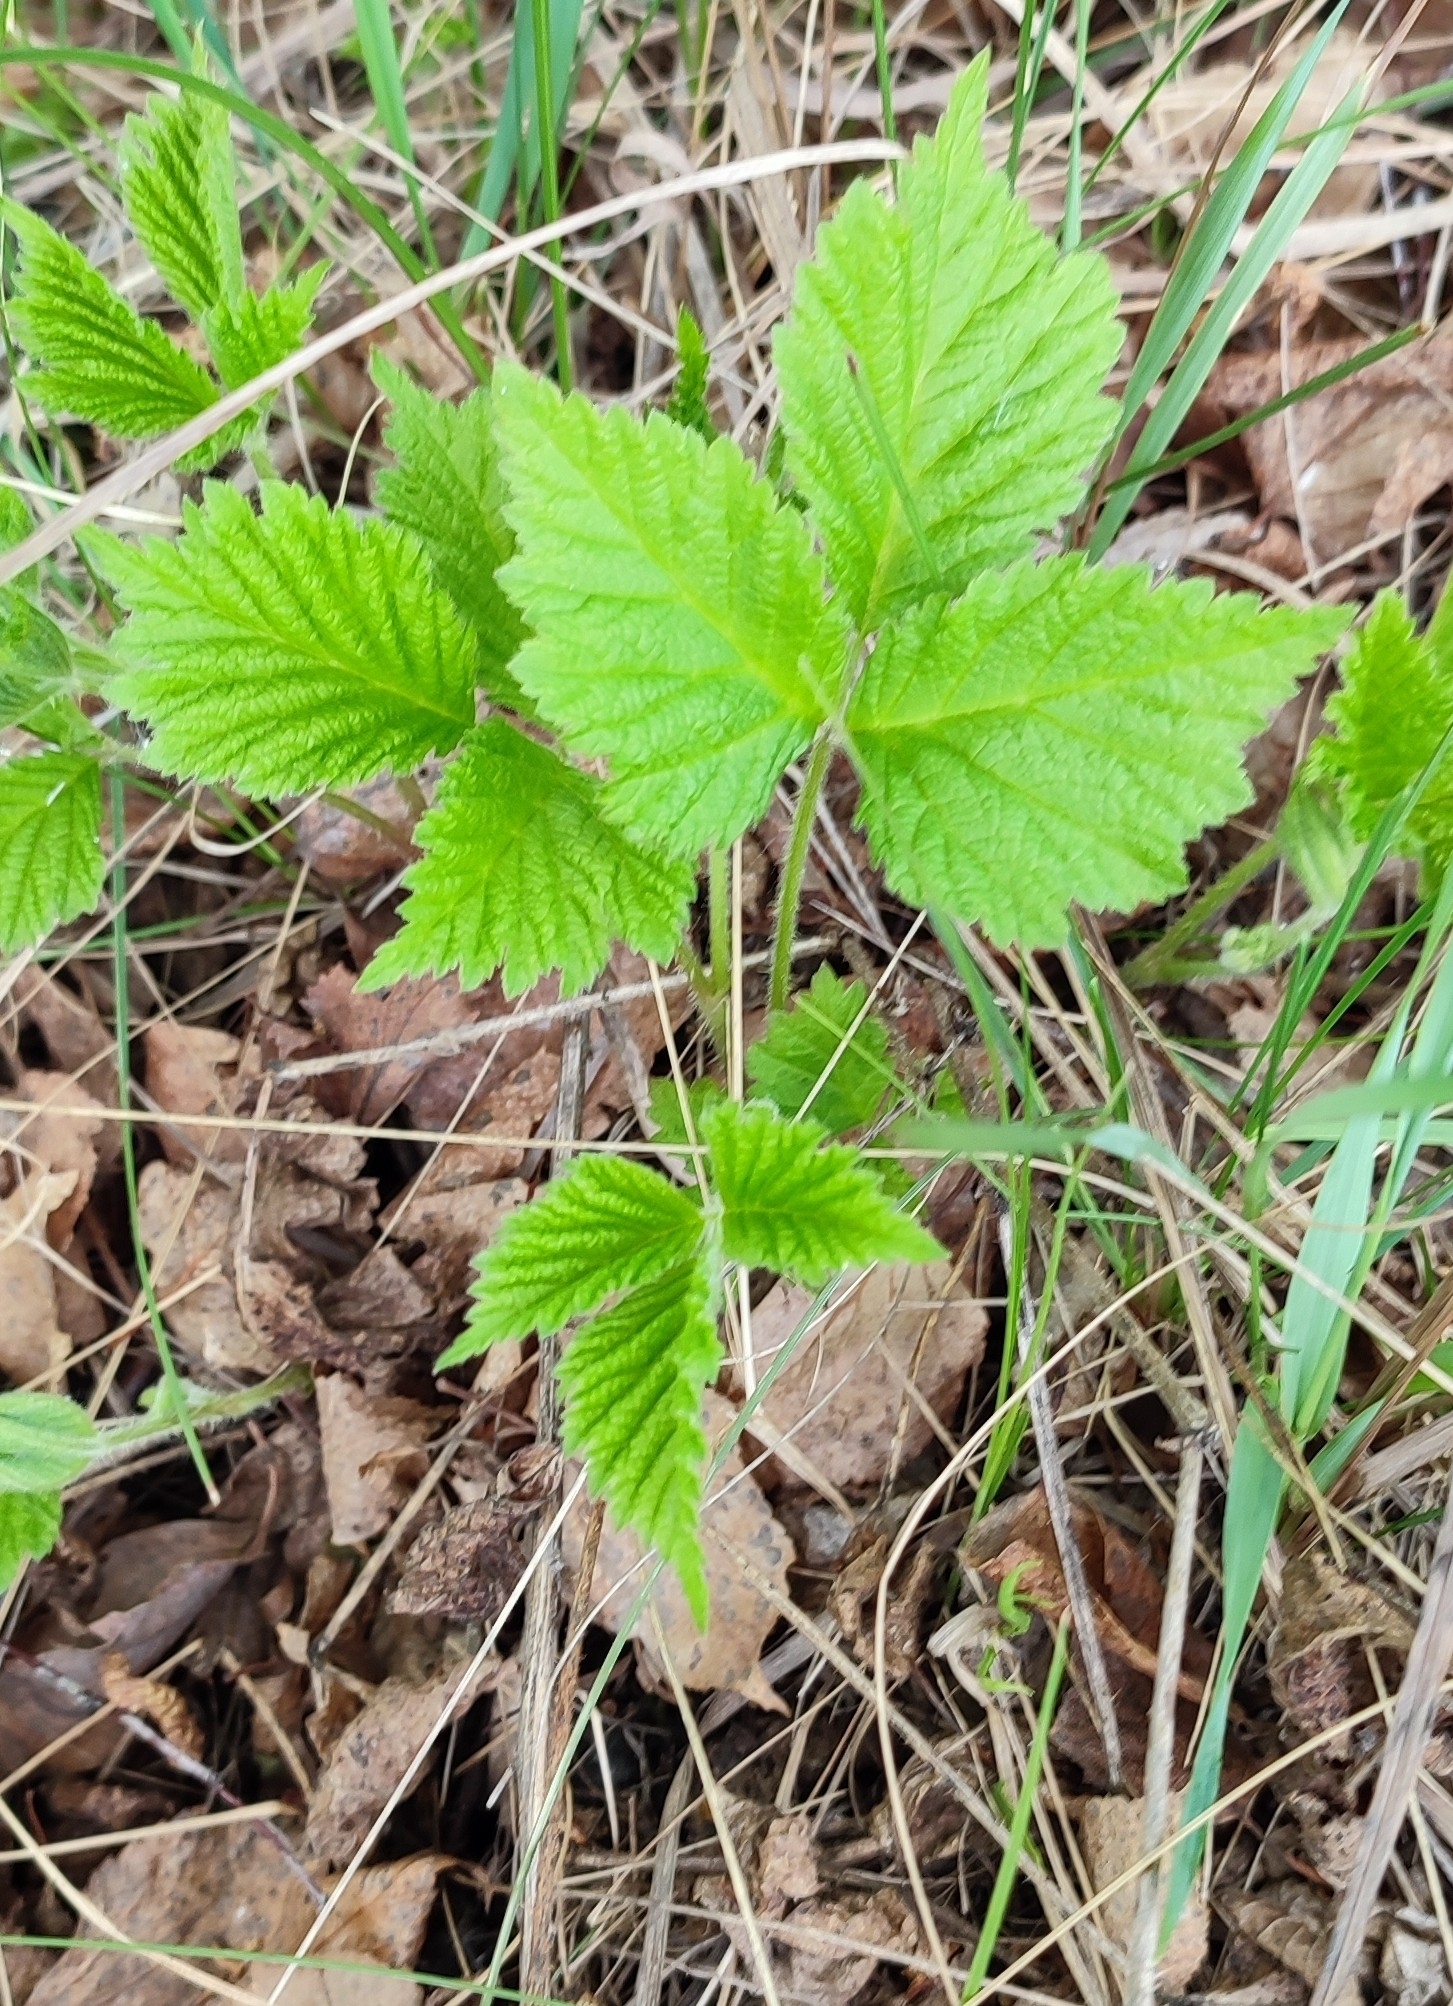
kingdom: Plantae
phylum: Tracheophyta
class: Magnoliopsida
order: Rosales
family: Rosaceae
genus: Rubus
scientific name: Rubus saxatilis
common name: Stone bramble
